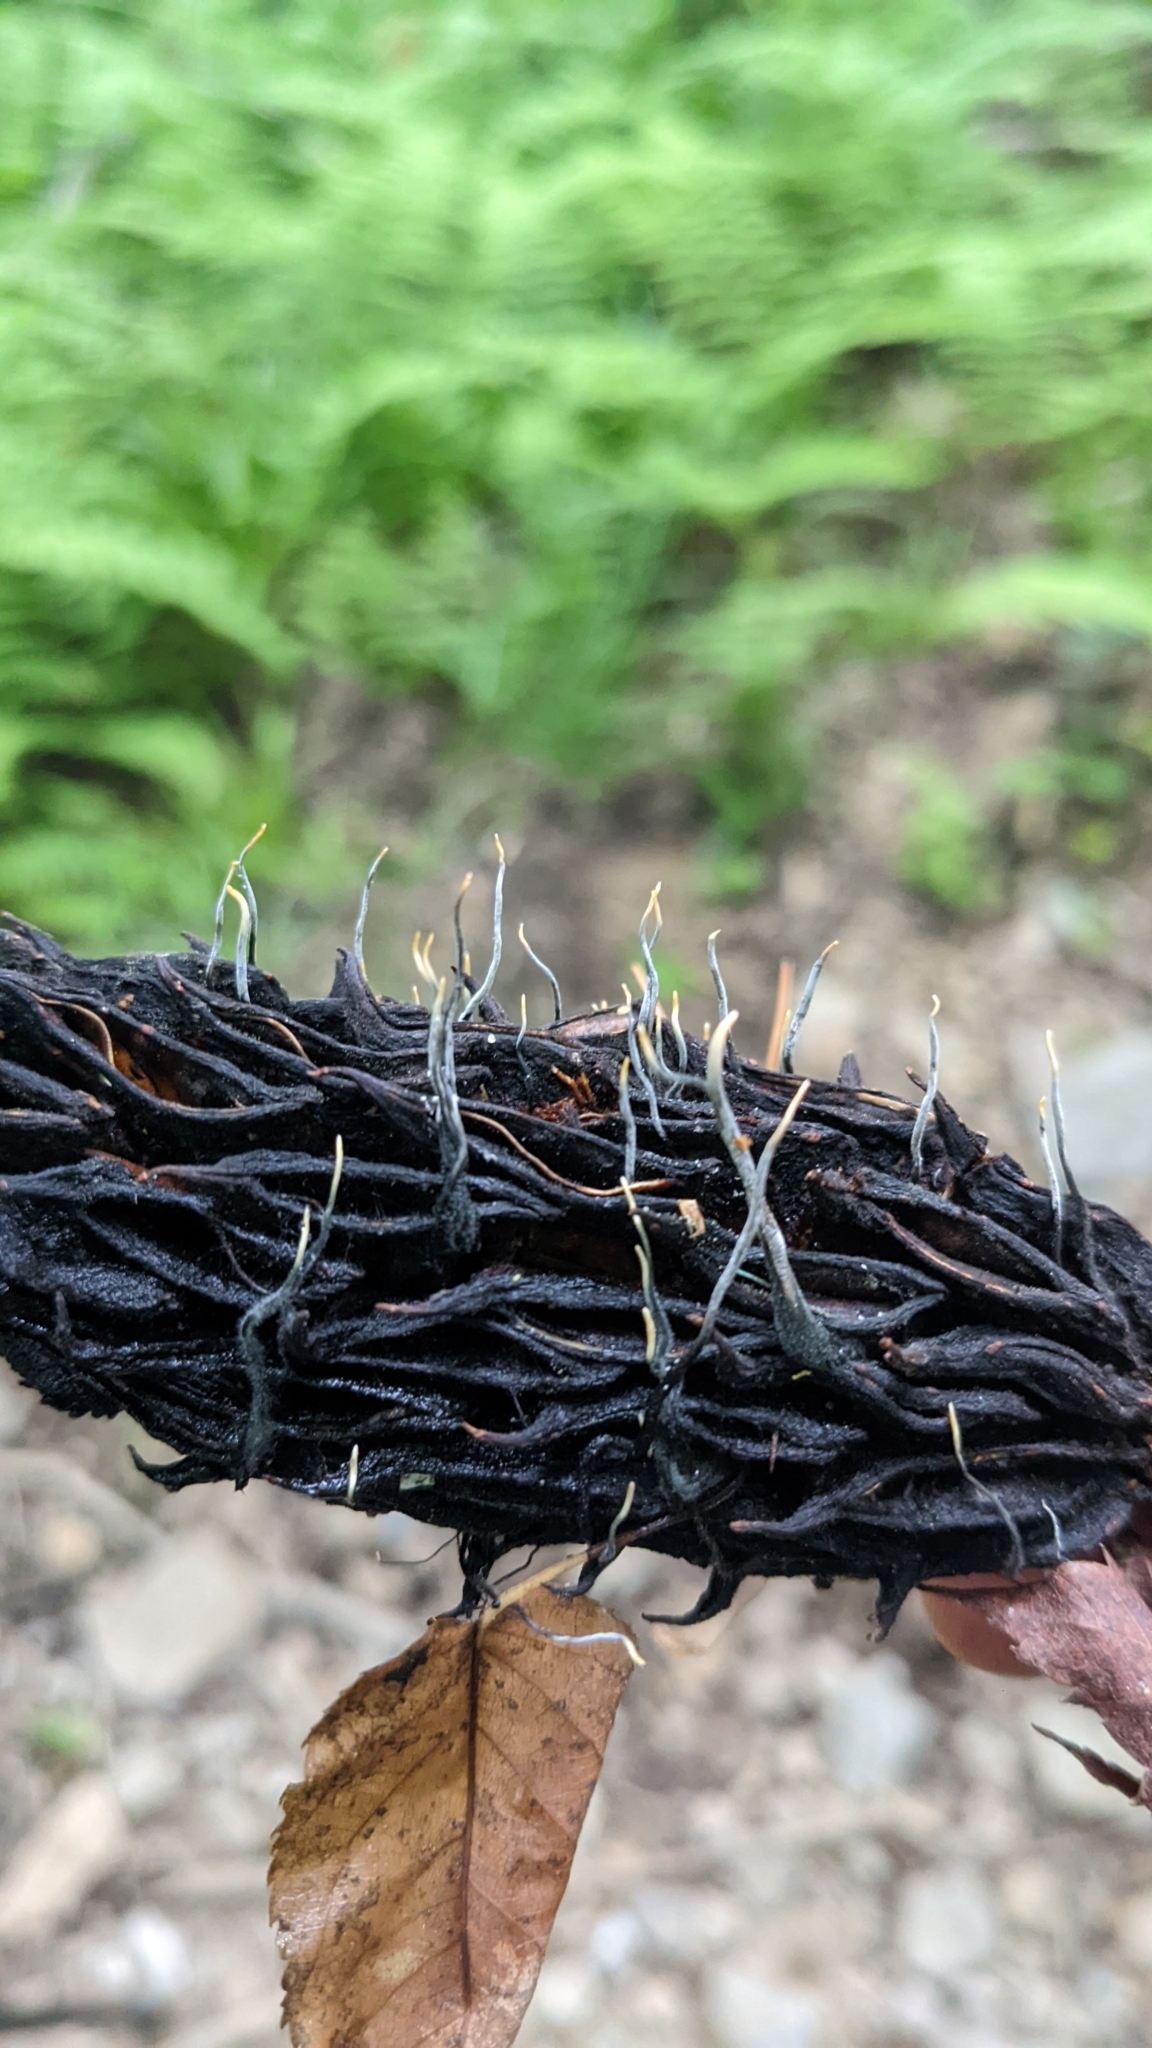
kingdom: Fungi
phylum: Ascomycota
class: Sordariomycetes
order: Xylariales
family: Xylariaceae
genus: Xylaria
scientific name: Xylaria magnoliae
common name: Magnolia-cone xylaria
